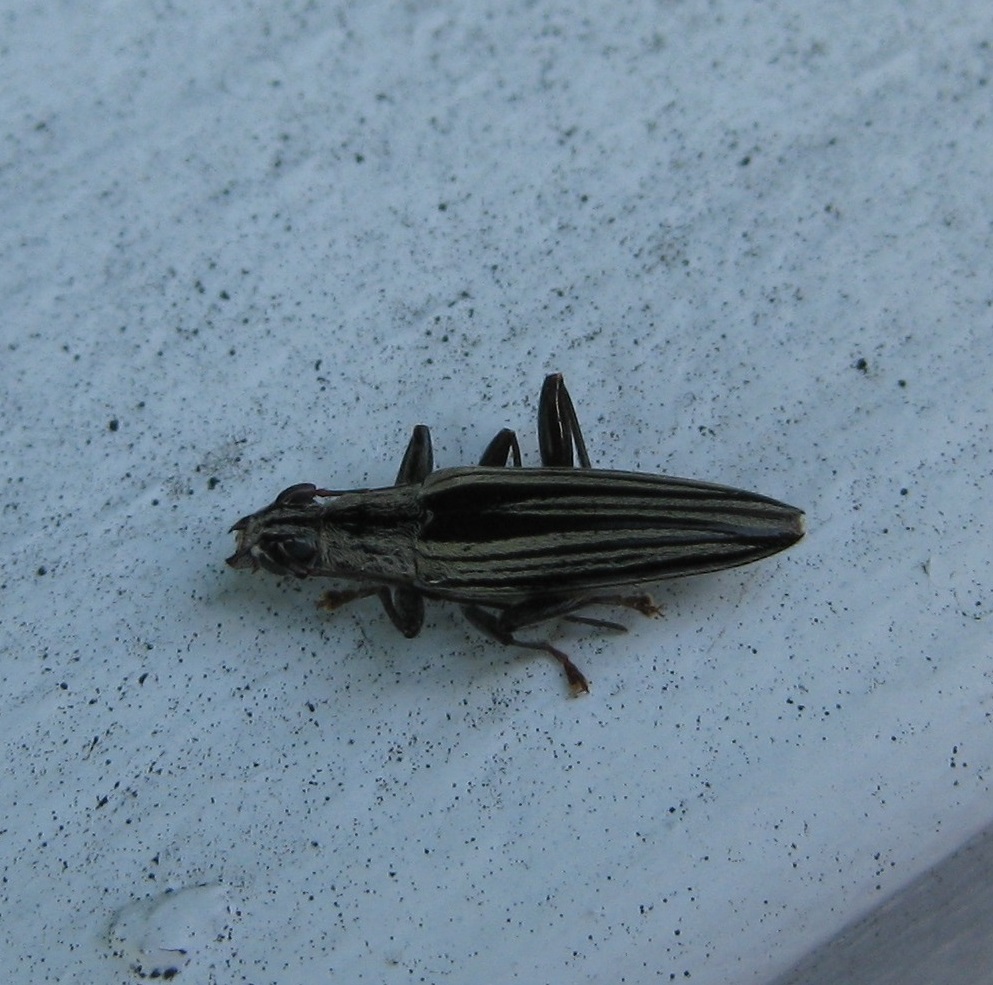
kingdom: Animalia
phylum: Arthropoda
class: Insecta
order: Coleoptera
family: Cerambycidae
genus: Coptomma
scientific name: Coptomma sulcatum
